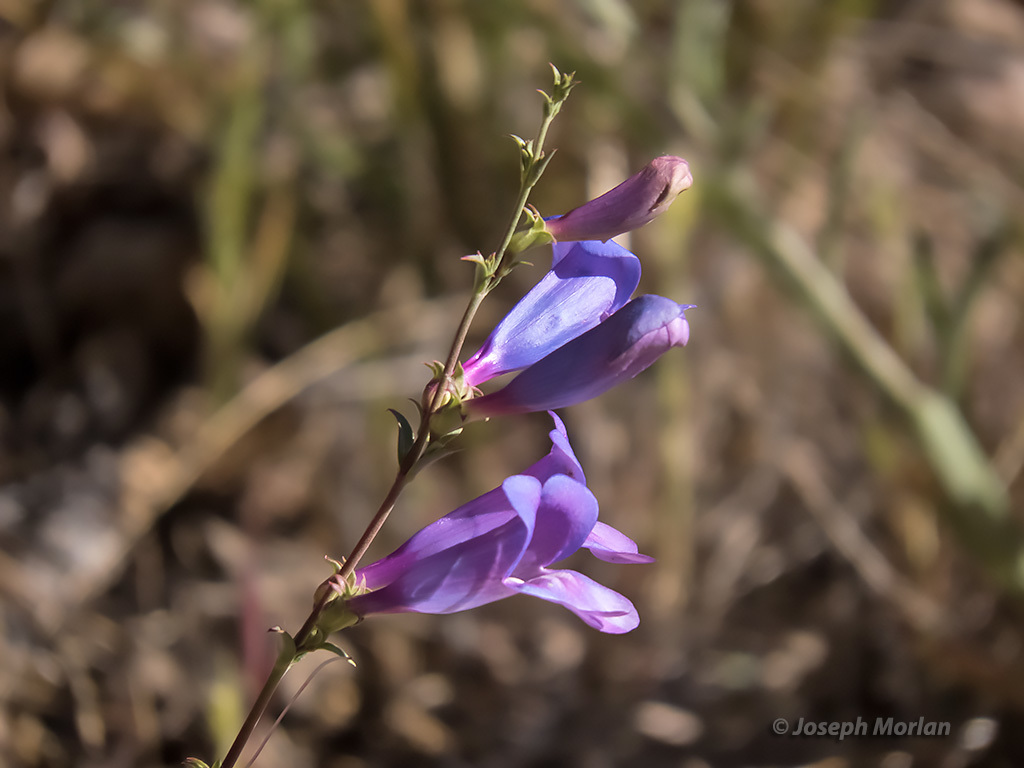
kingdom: Plantae
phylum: Tracheophyta
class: Magnoliopsida
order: Lamiales
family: Plantaginaceae
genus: Penstemon
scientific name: Penstemon heterophyllus
